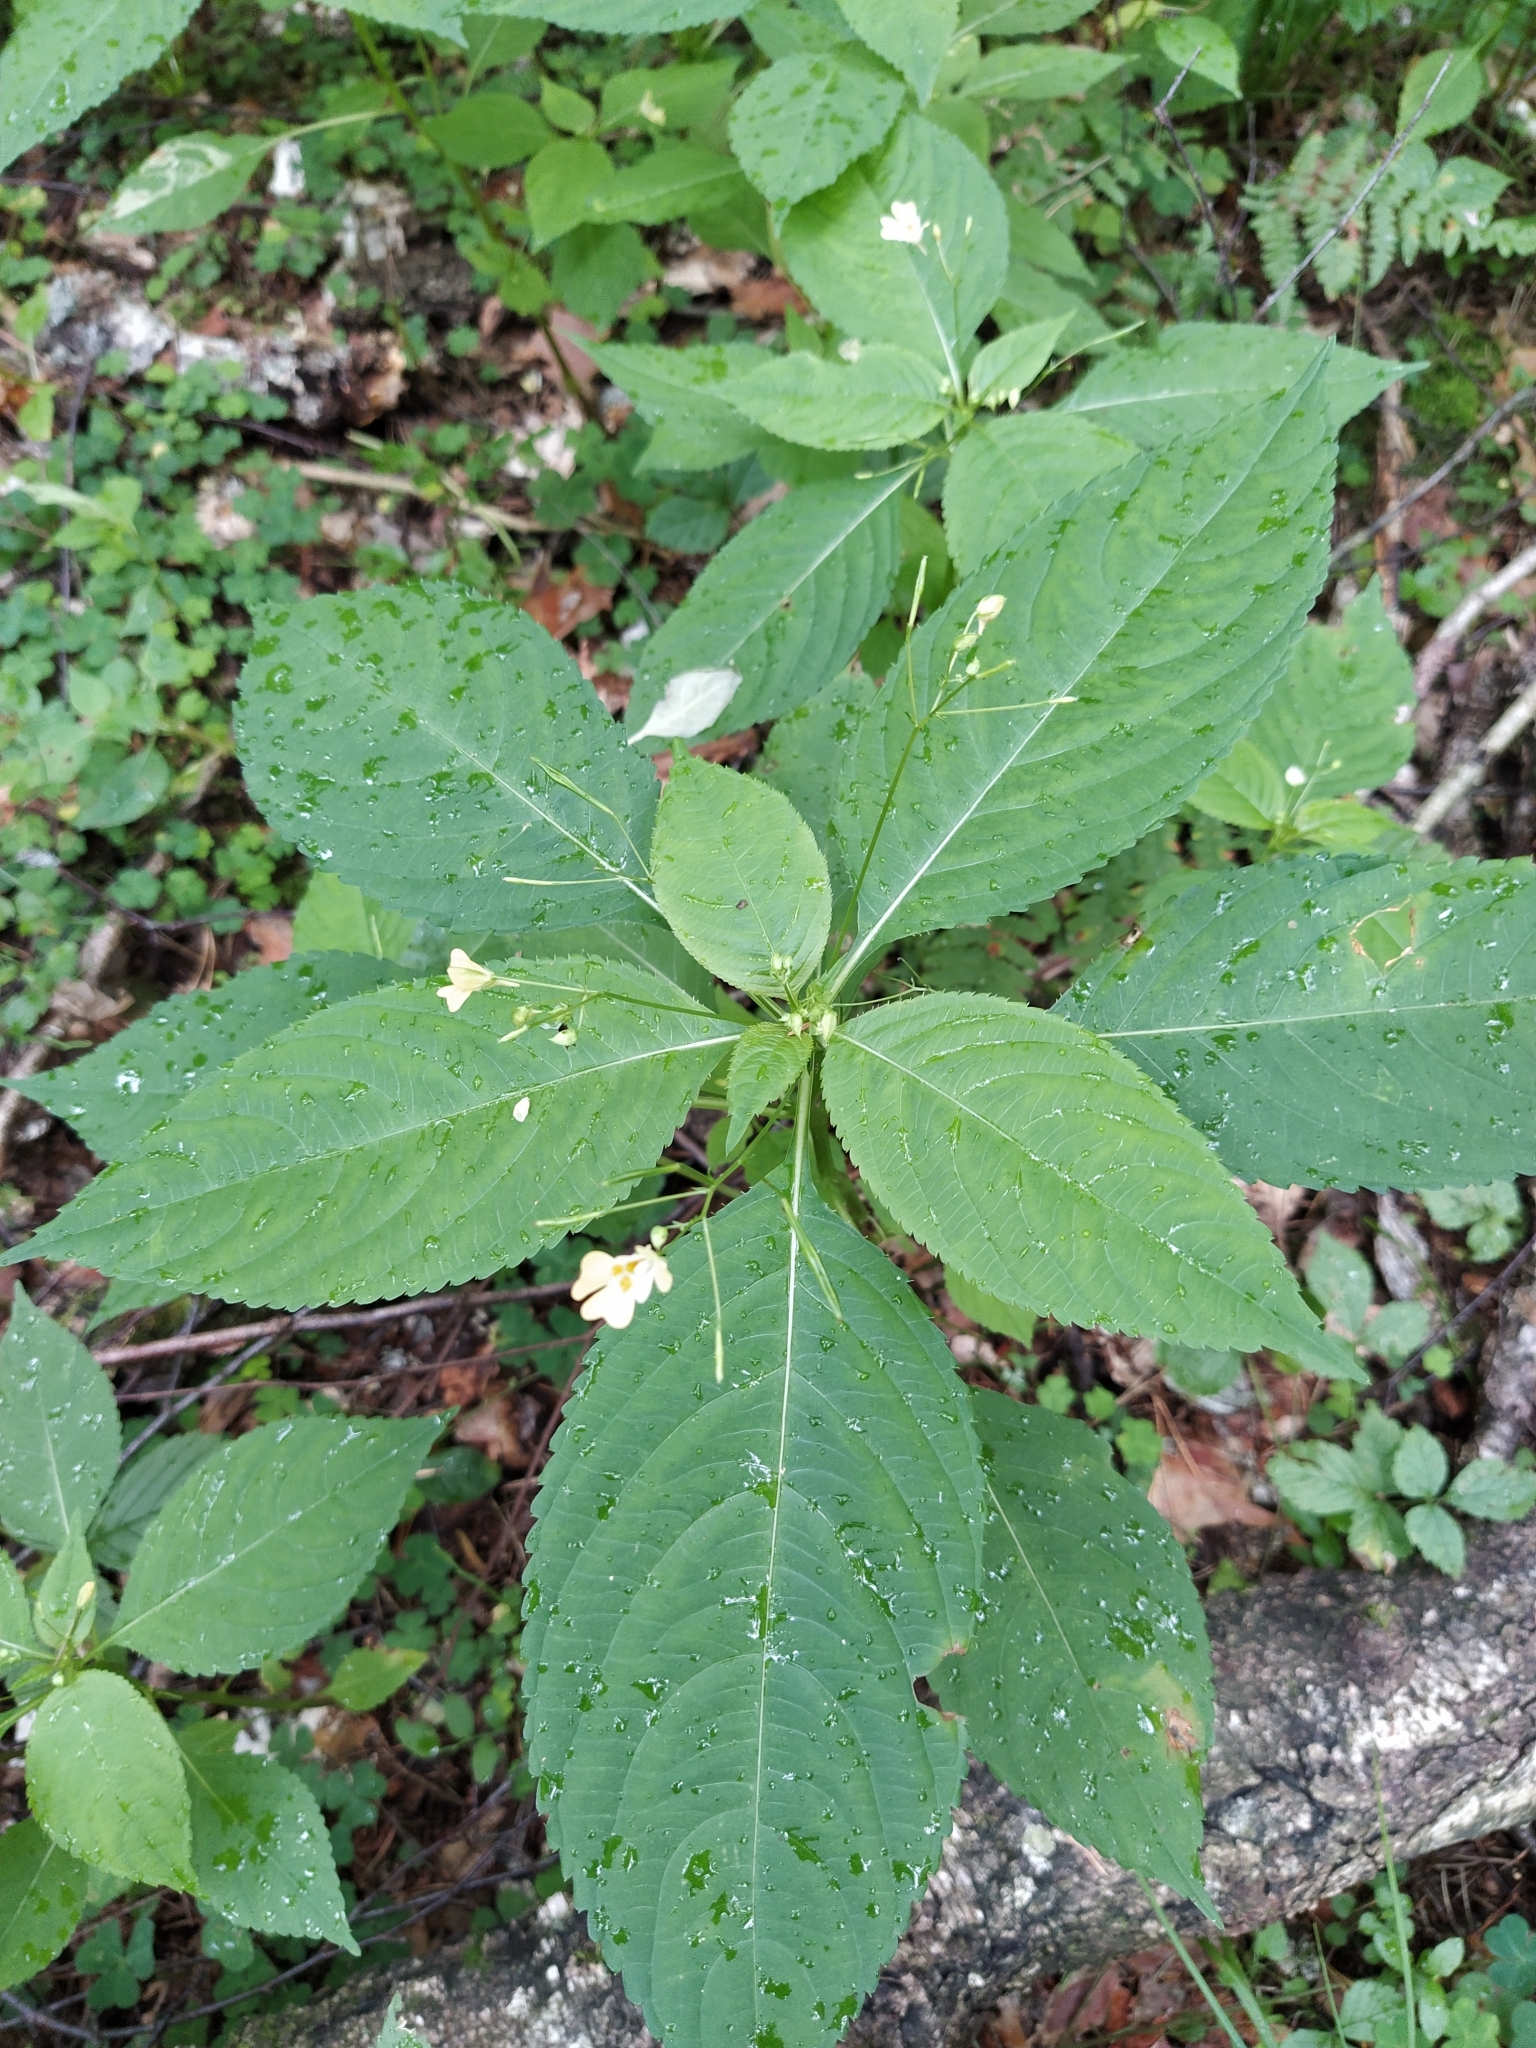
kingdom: Plantae
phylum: Tracheophyta
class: Magnoliopsida
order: Ericales
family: Balsaminaceae
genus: Impatiens
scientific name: Impatiens parviflora
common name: Small balsam
